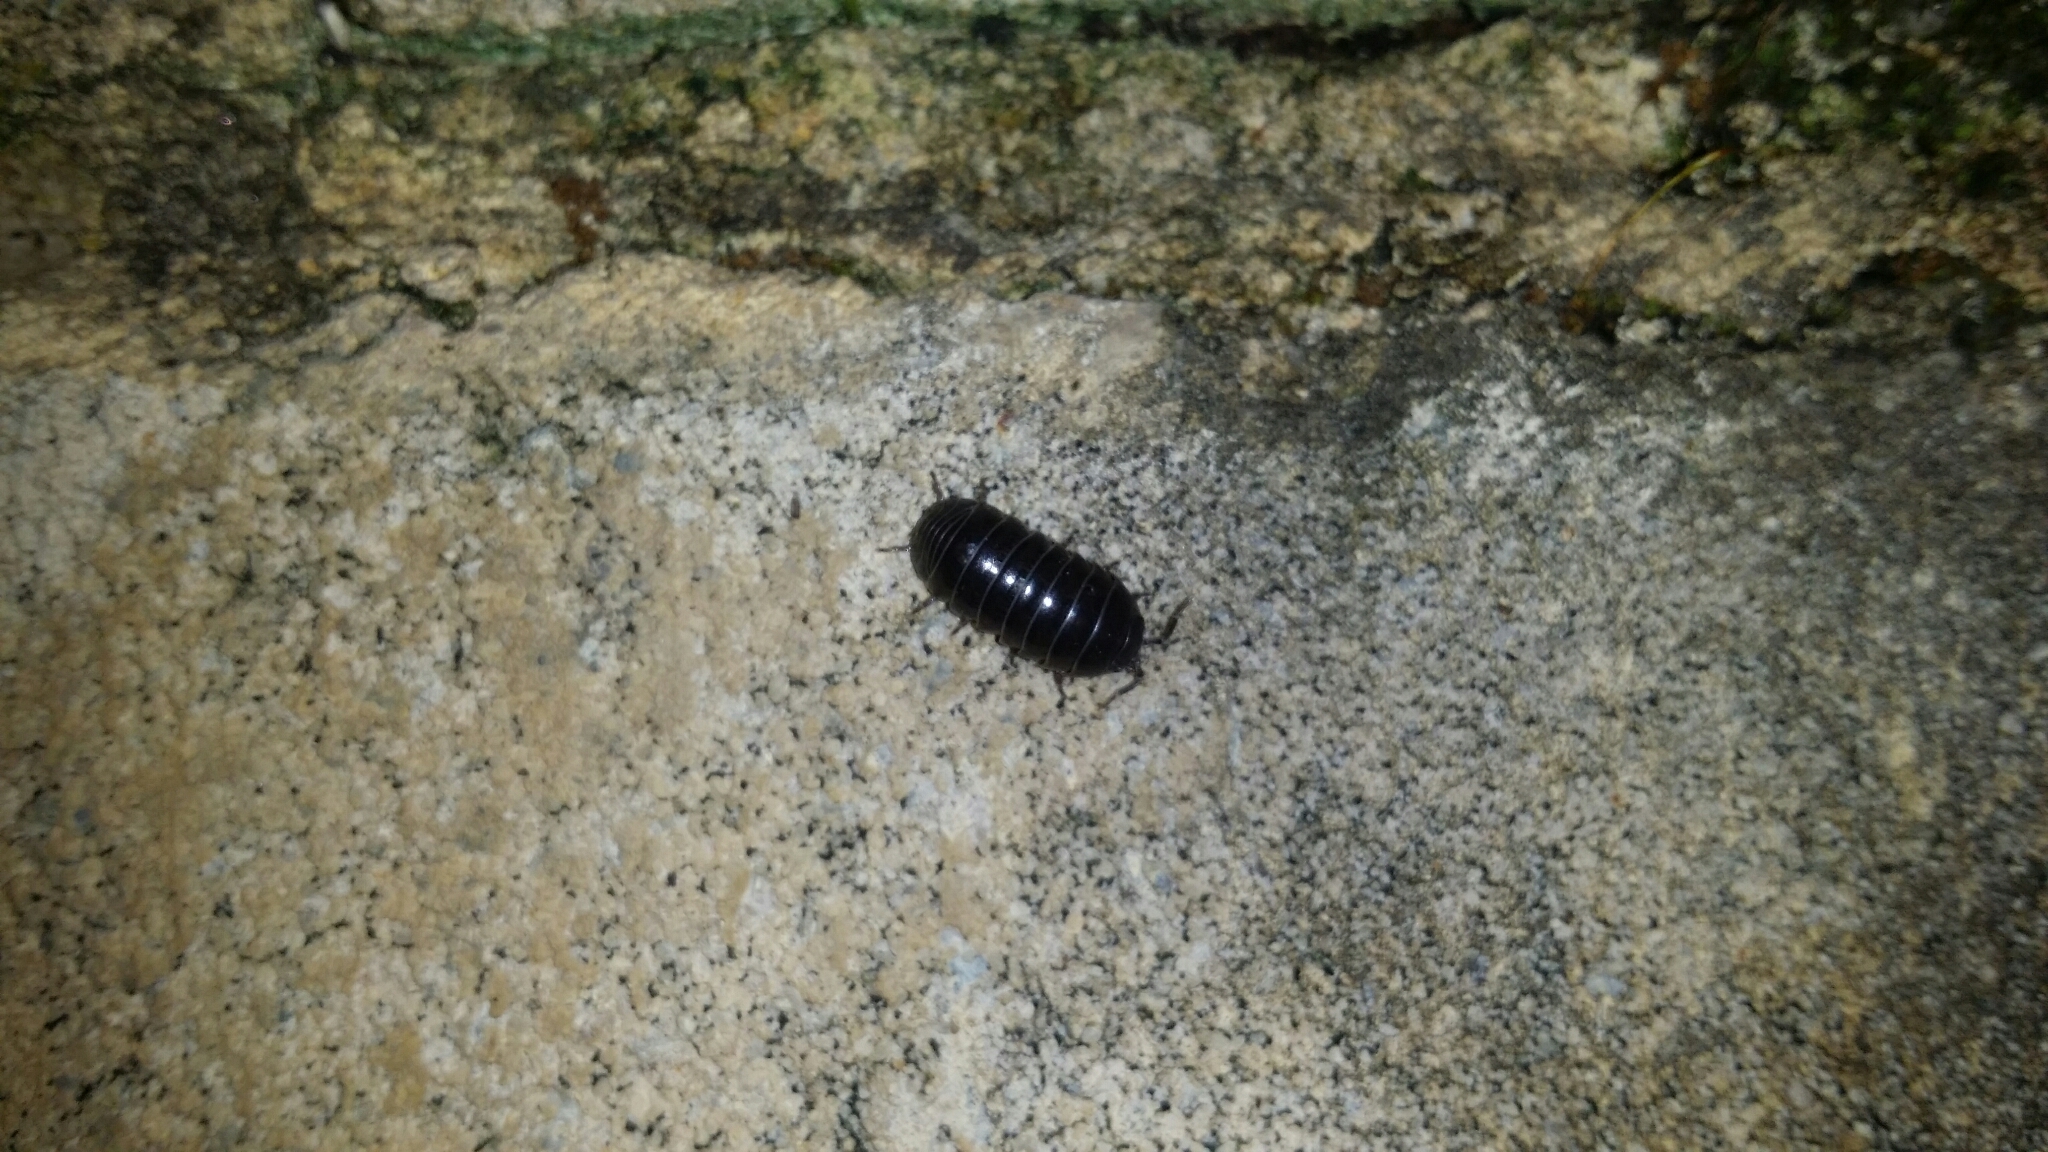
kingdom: Animalia
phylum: Arthropoda
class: Malacostraca
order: Isopoda
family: Armadillidiidae
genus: Armadillidium
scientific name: Armadillidium vulgare
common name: Common pill woodlouse
